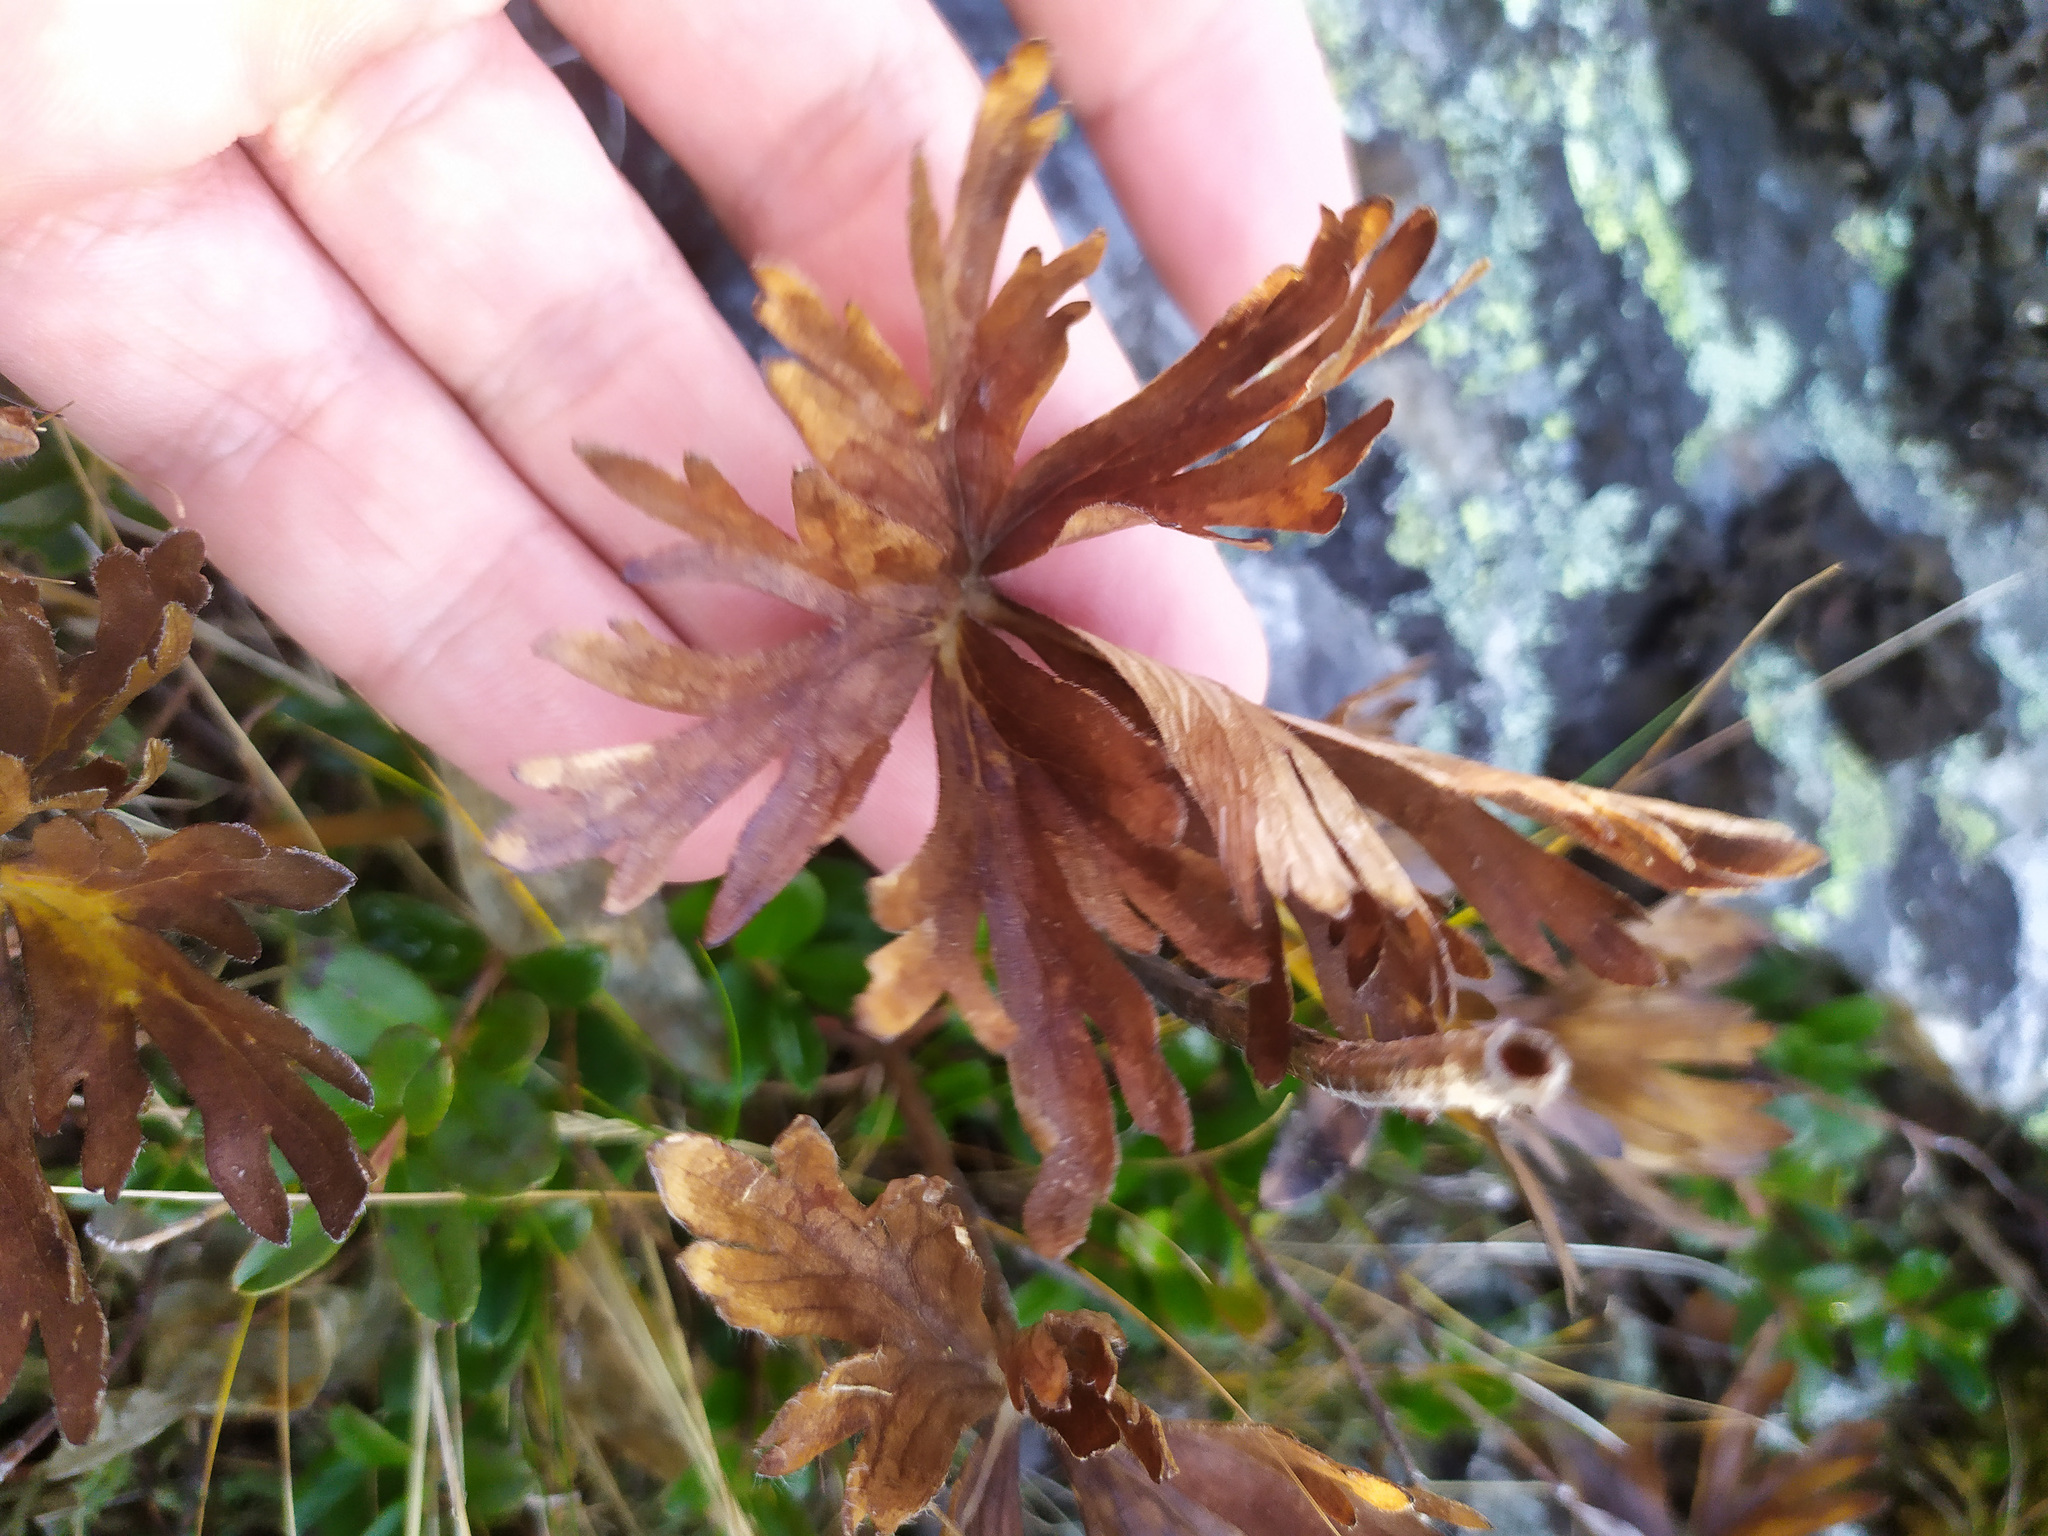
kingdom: Plantae
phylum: Tracheophyta
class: Magnoliopsida
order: Ranunculales
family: Ranunculaceae
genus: Anemonastrum
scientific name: Anemonastrum biarmiense
